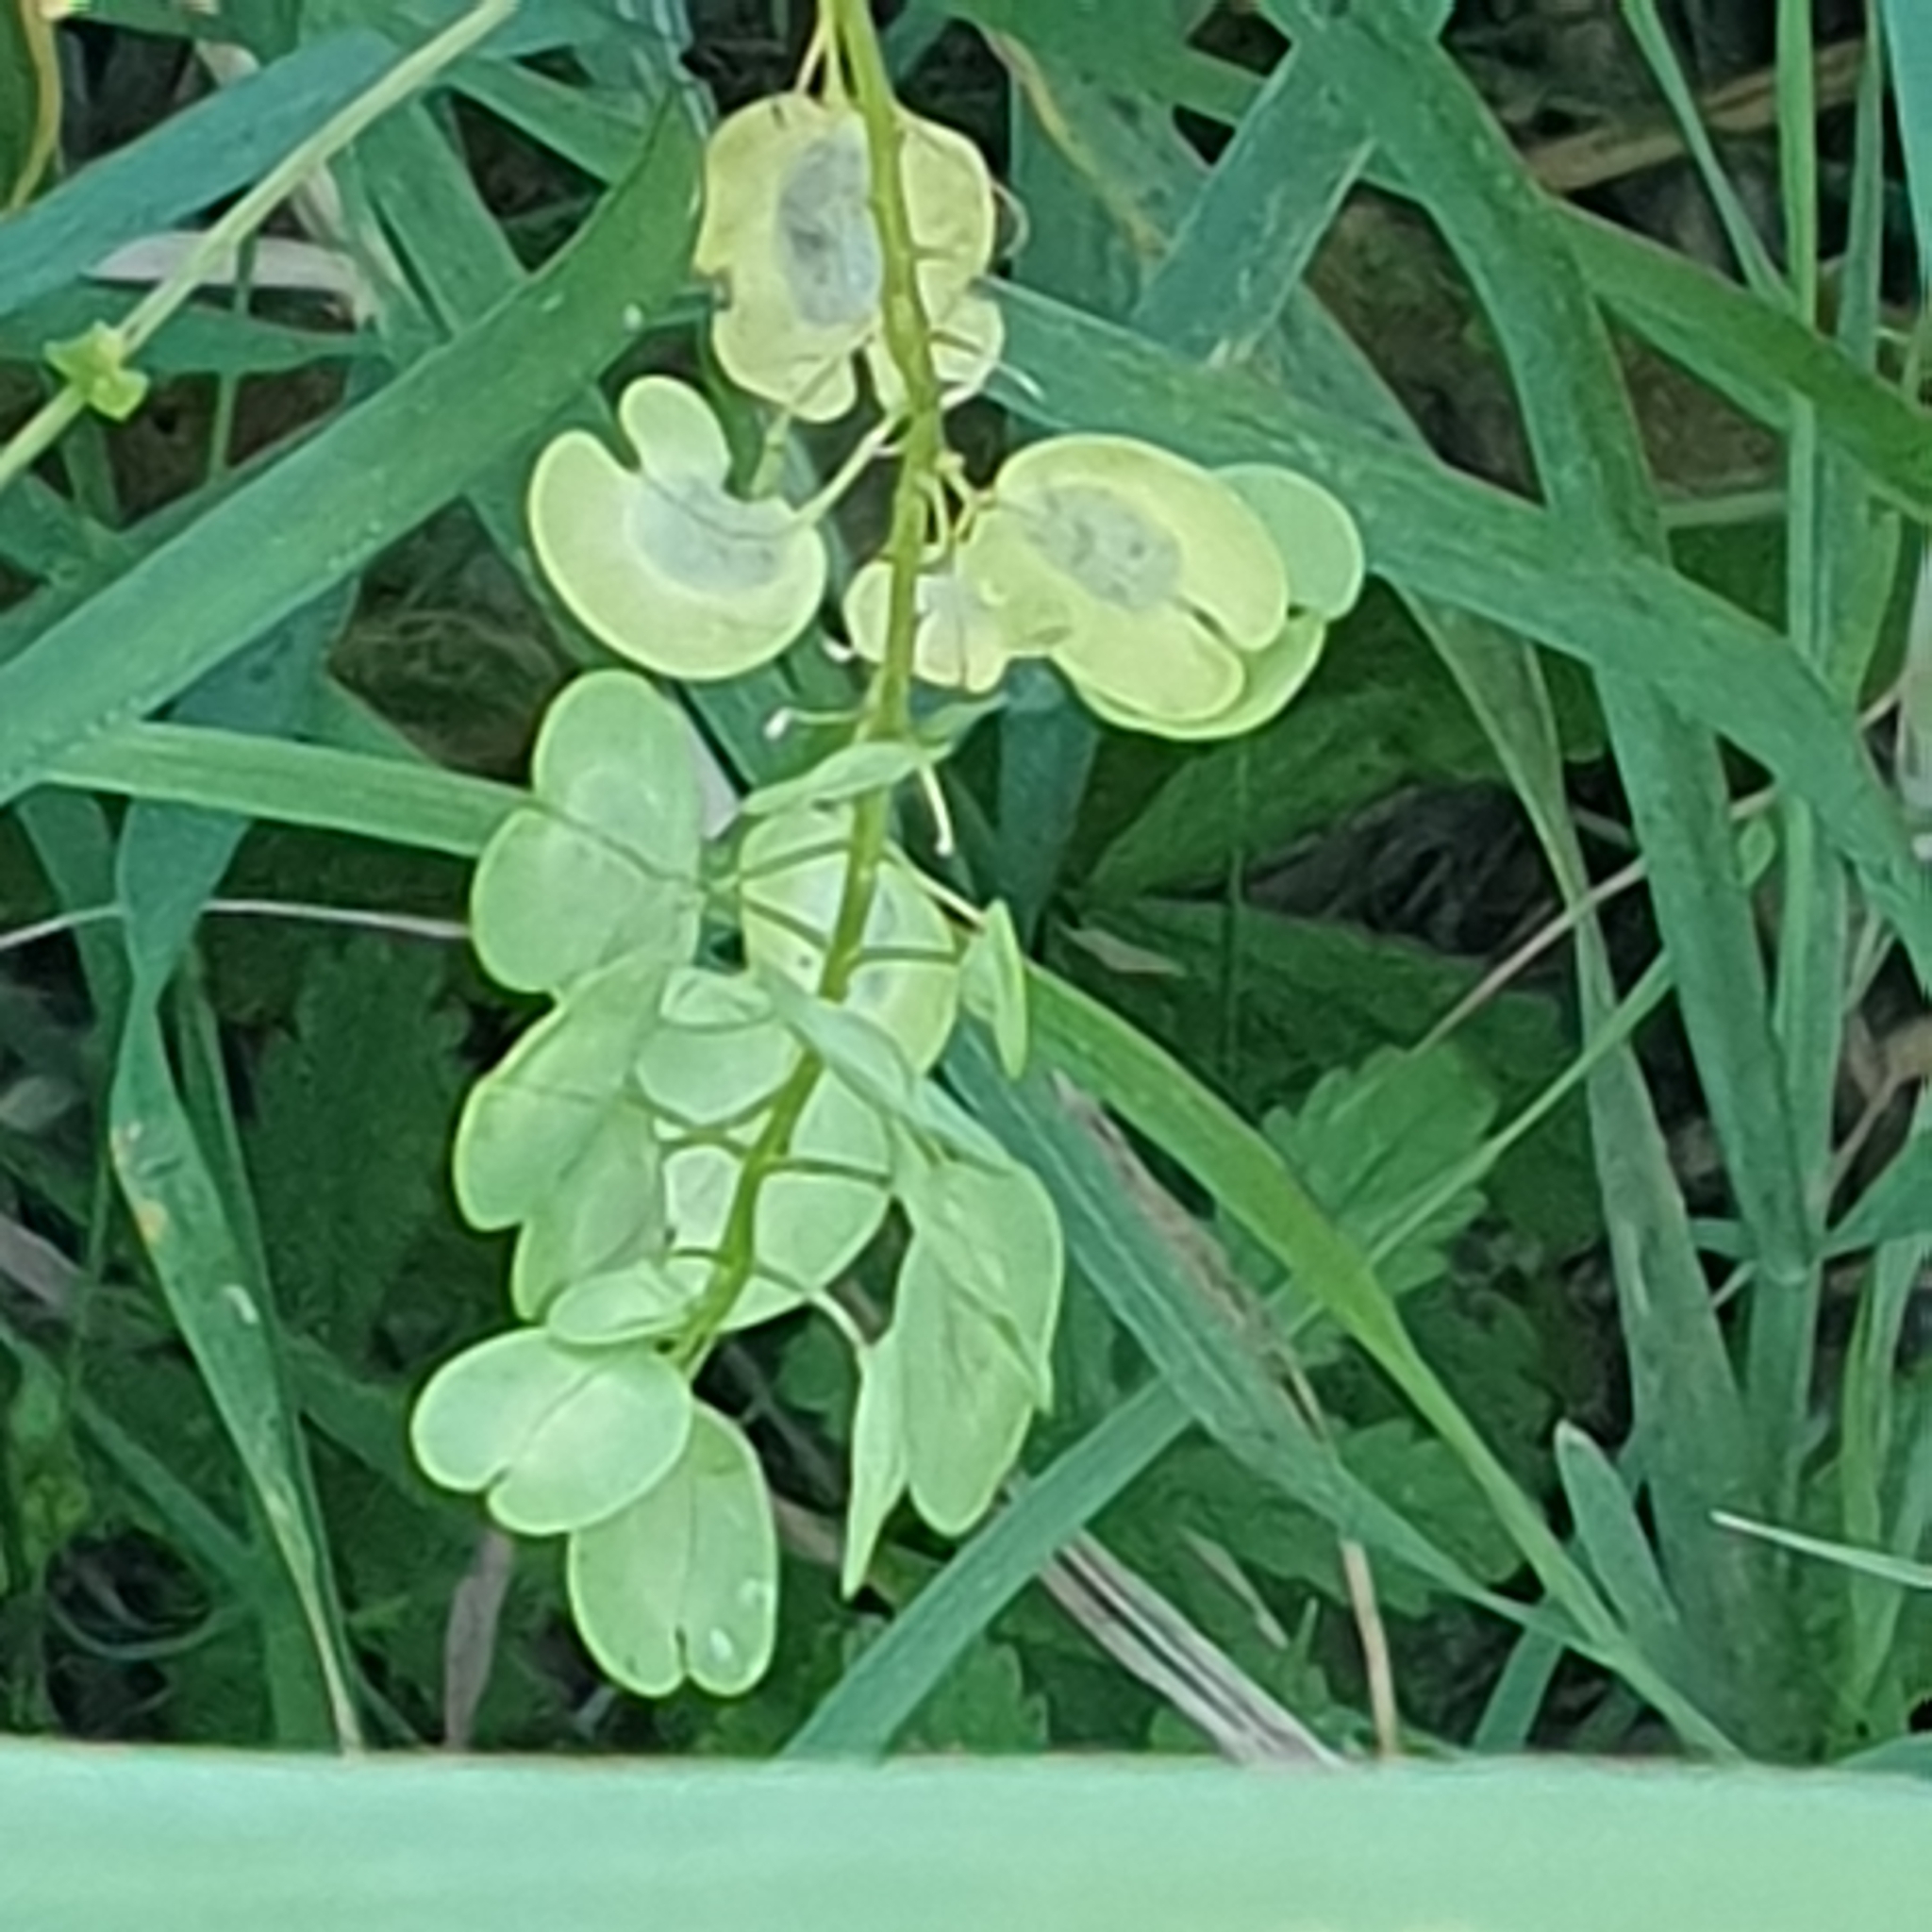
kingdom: Plantae
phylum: Tracheophyta
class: Magnoliopsida
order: Brassicales
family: Brassicaceae
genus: Thlaspi
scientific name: Thlaspi arvense
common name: Field pennycress
